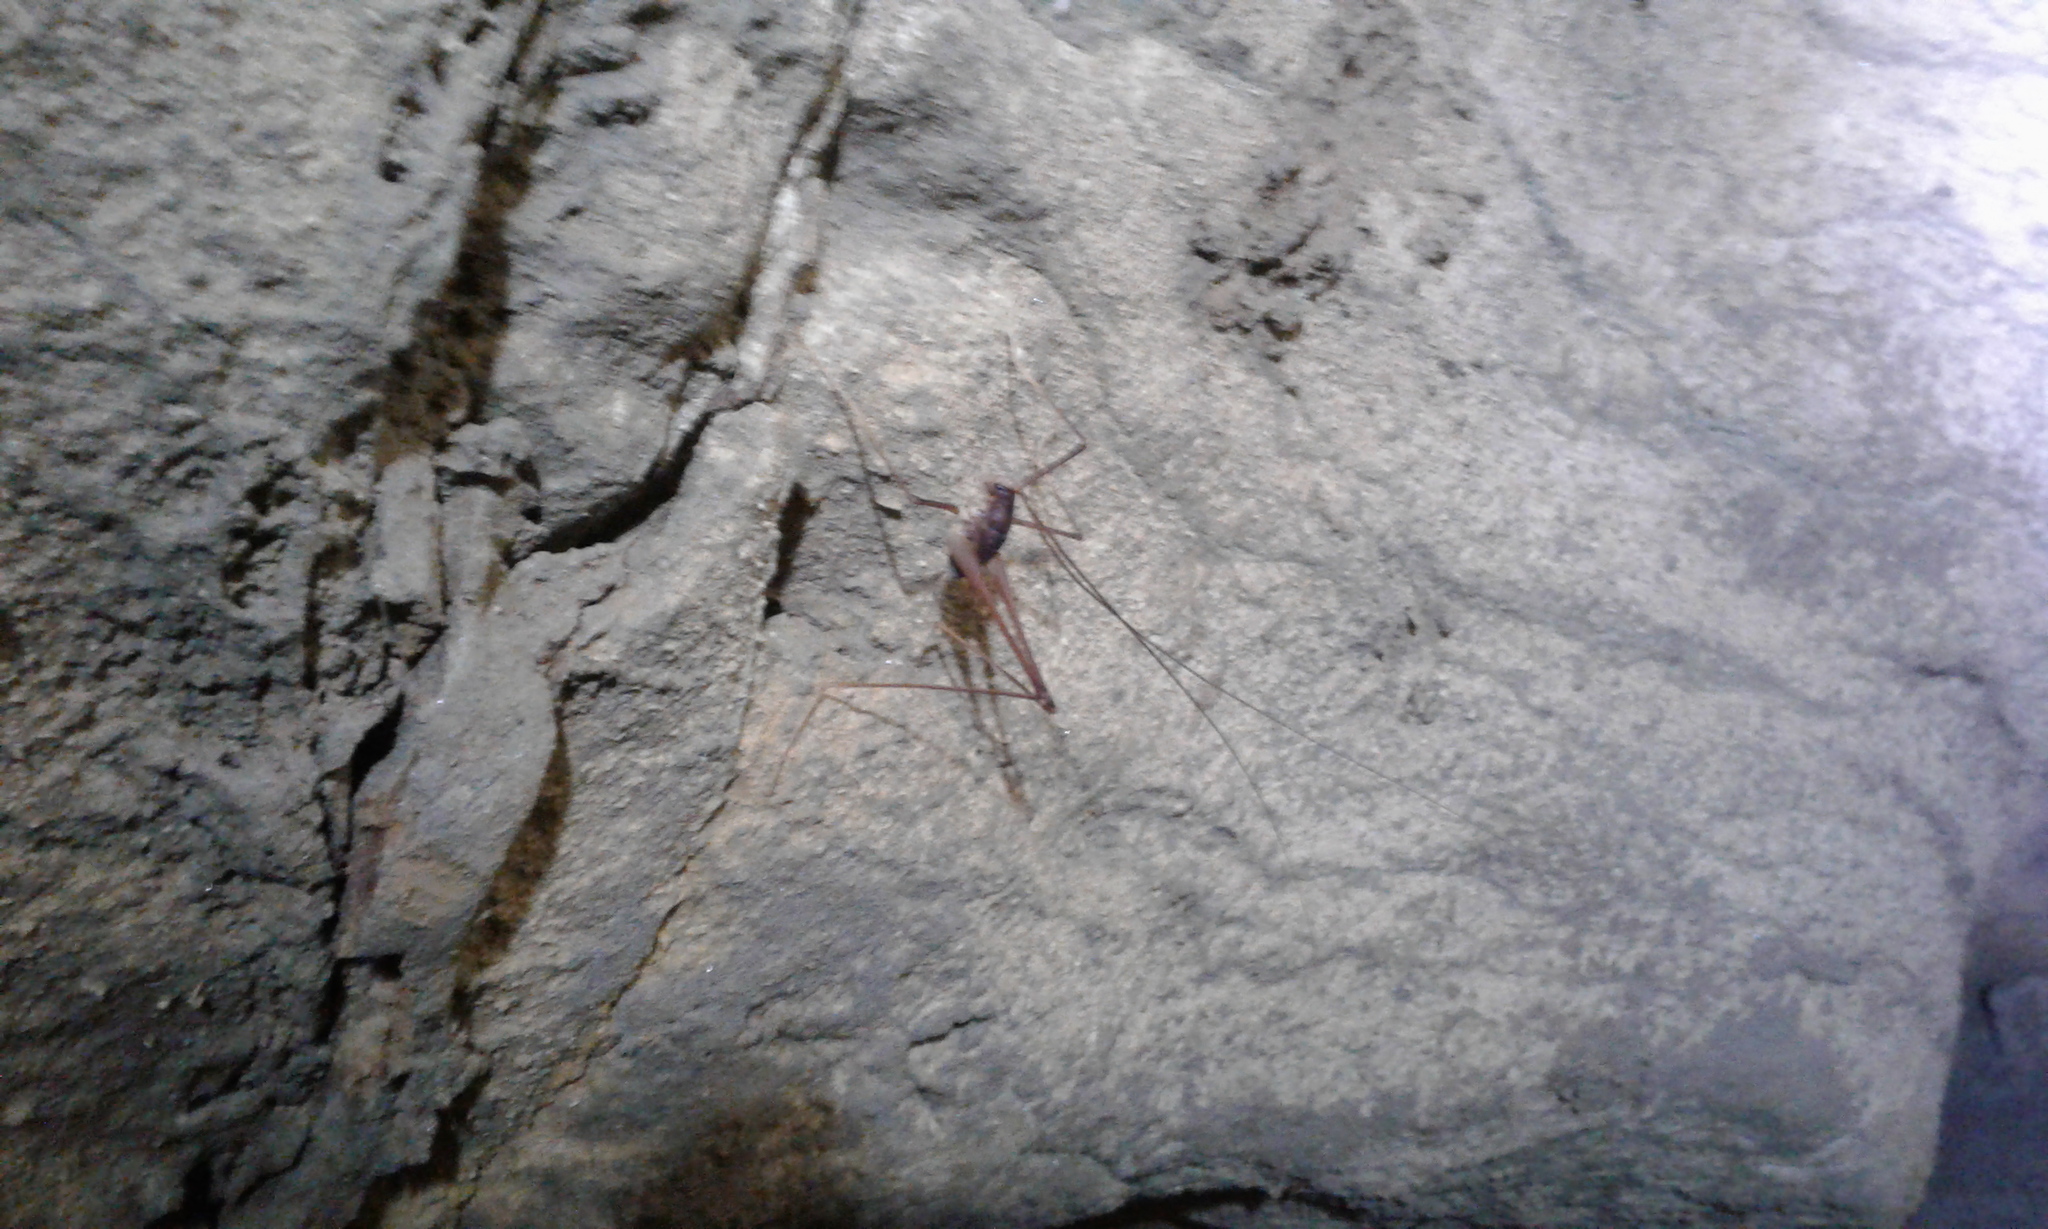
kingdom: Animalia
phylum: Arthropoda
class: Insecta
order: Orthoptera
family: Rhaphidophoridae
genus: Macropathus
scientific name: Macropathus filifer
